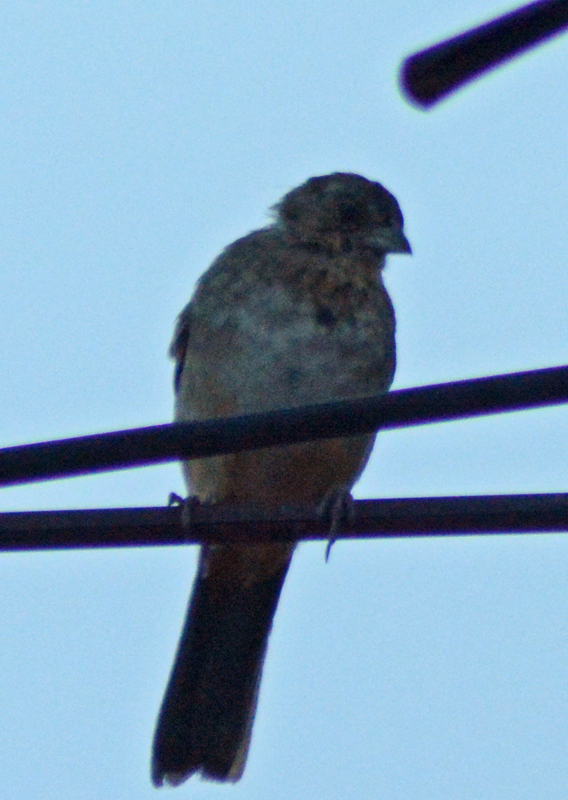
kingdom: Animalia
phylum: Chordata
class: Aves
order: Passeriformes
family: Passerellidae
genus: Melozone
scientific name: Melozone fusca
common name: Canyon towhee
